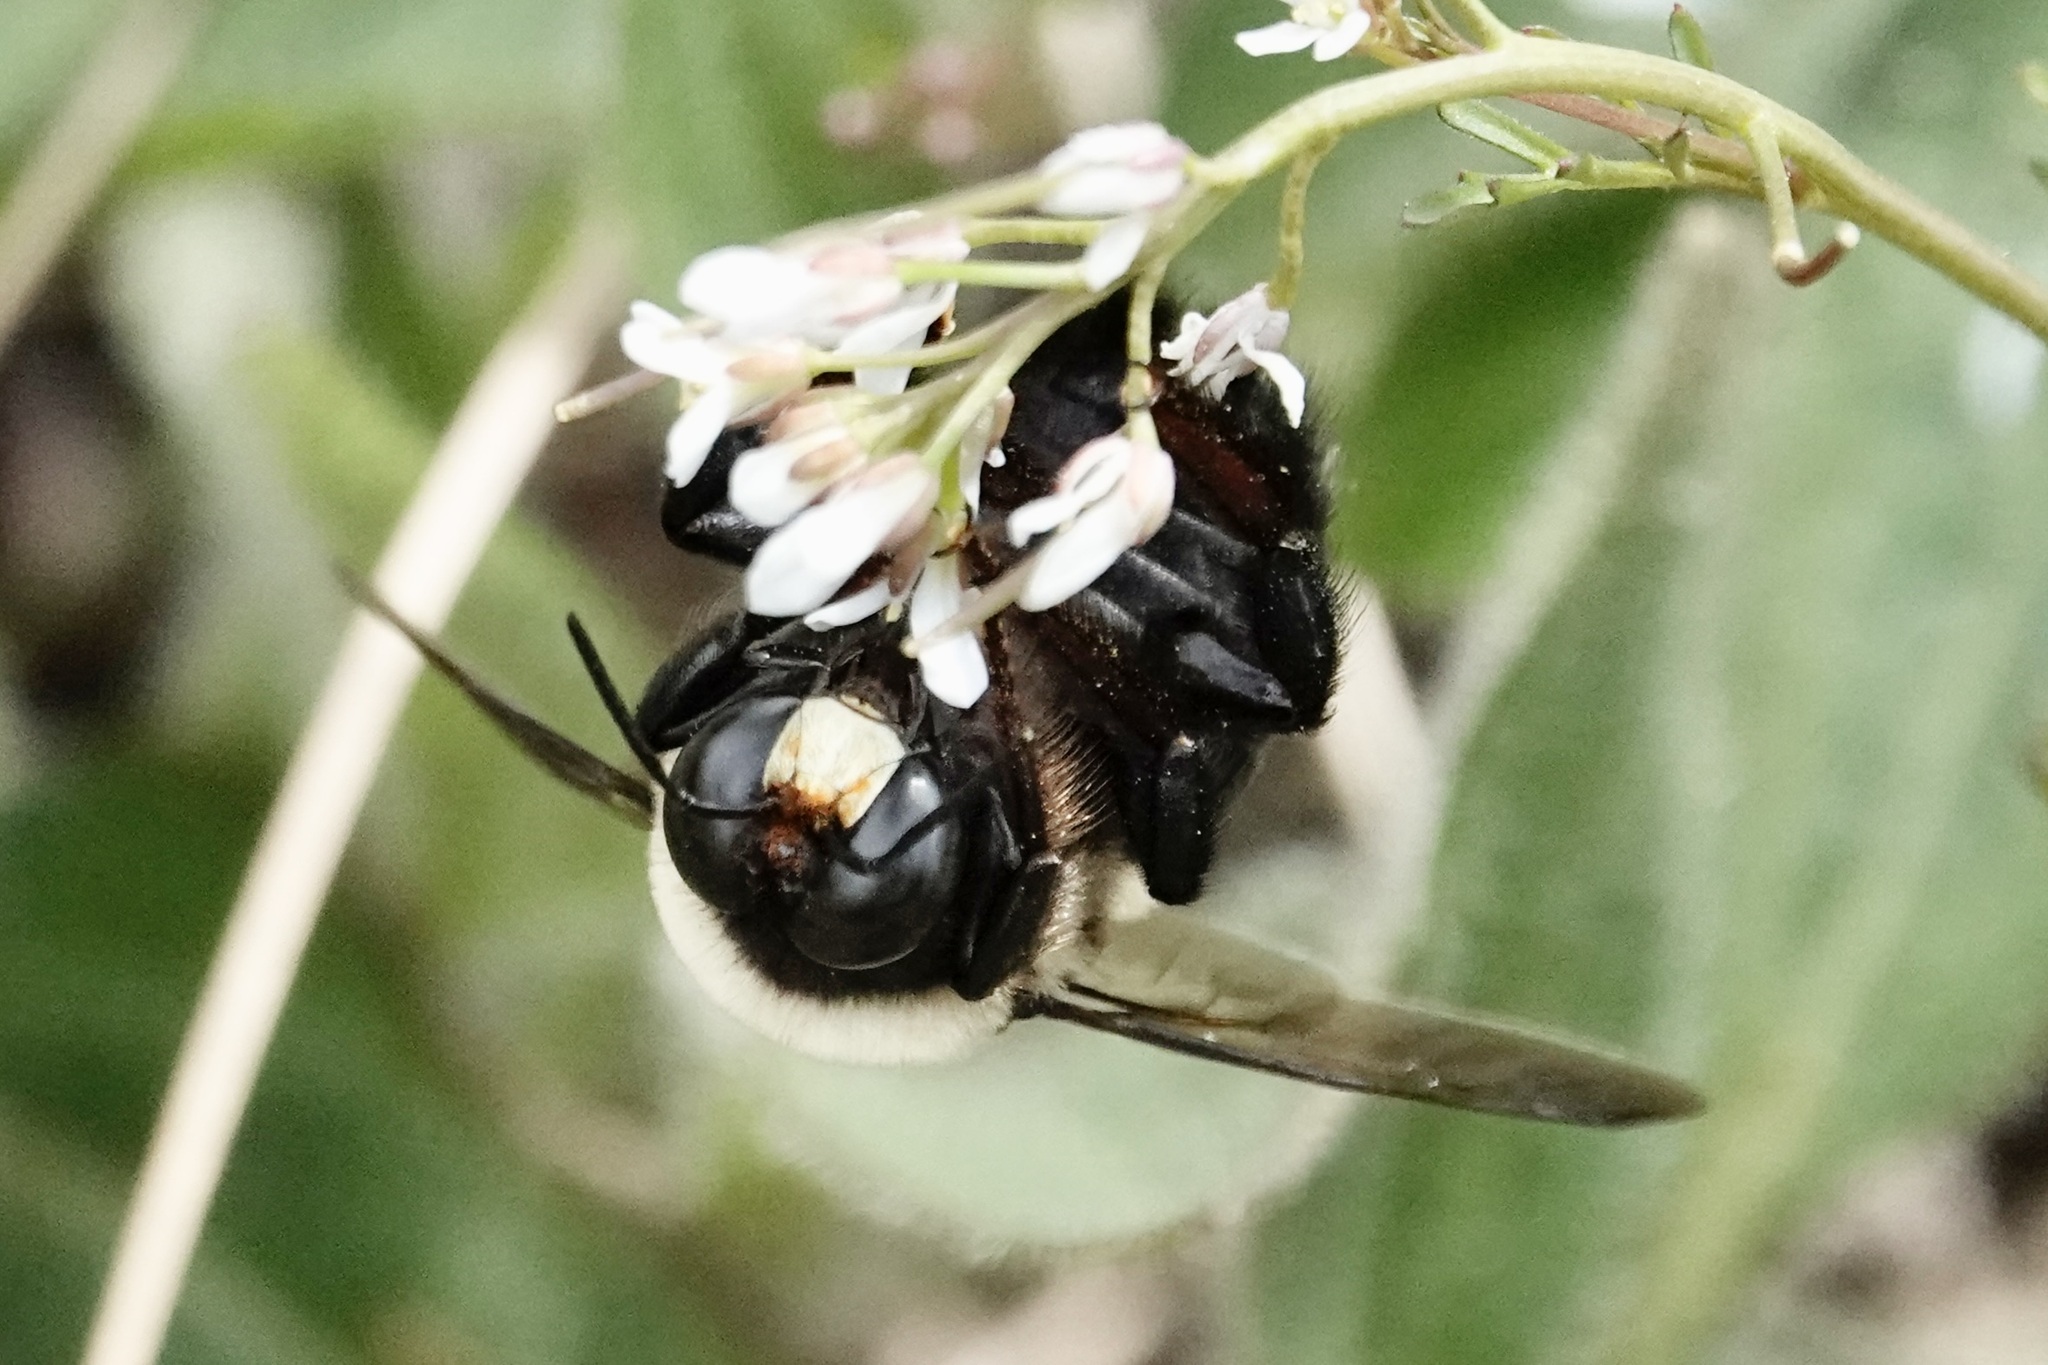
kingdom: Animalia
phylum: Arthropoda
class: Insecta
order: Hymenoptera
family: Apidae
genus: Xylocopa
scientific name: Xylocopa virginica
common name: Carpenter bee
